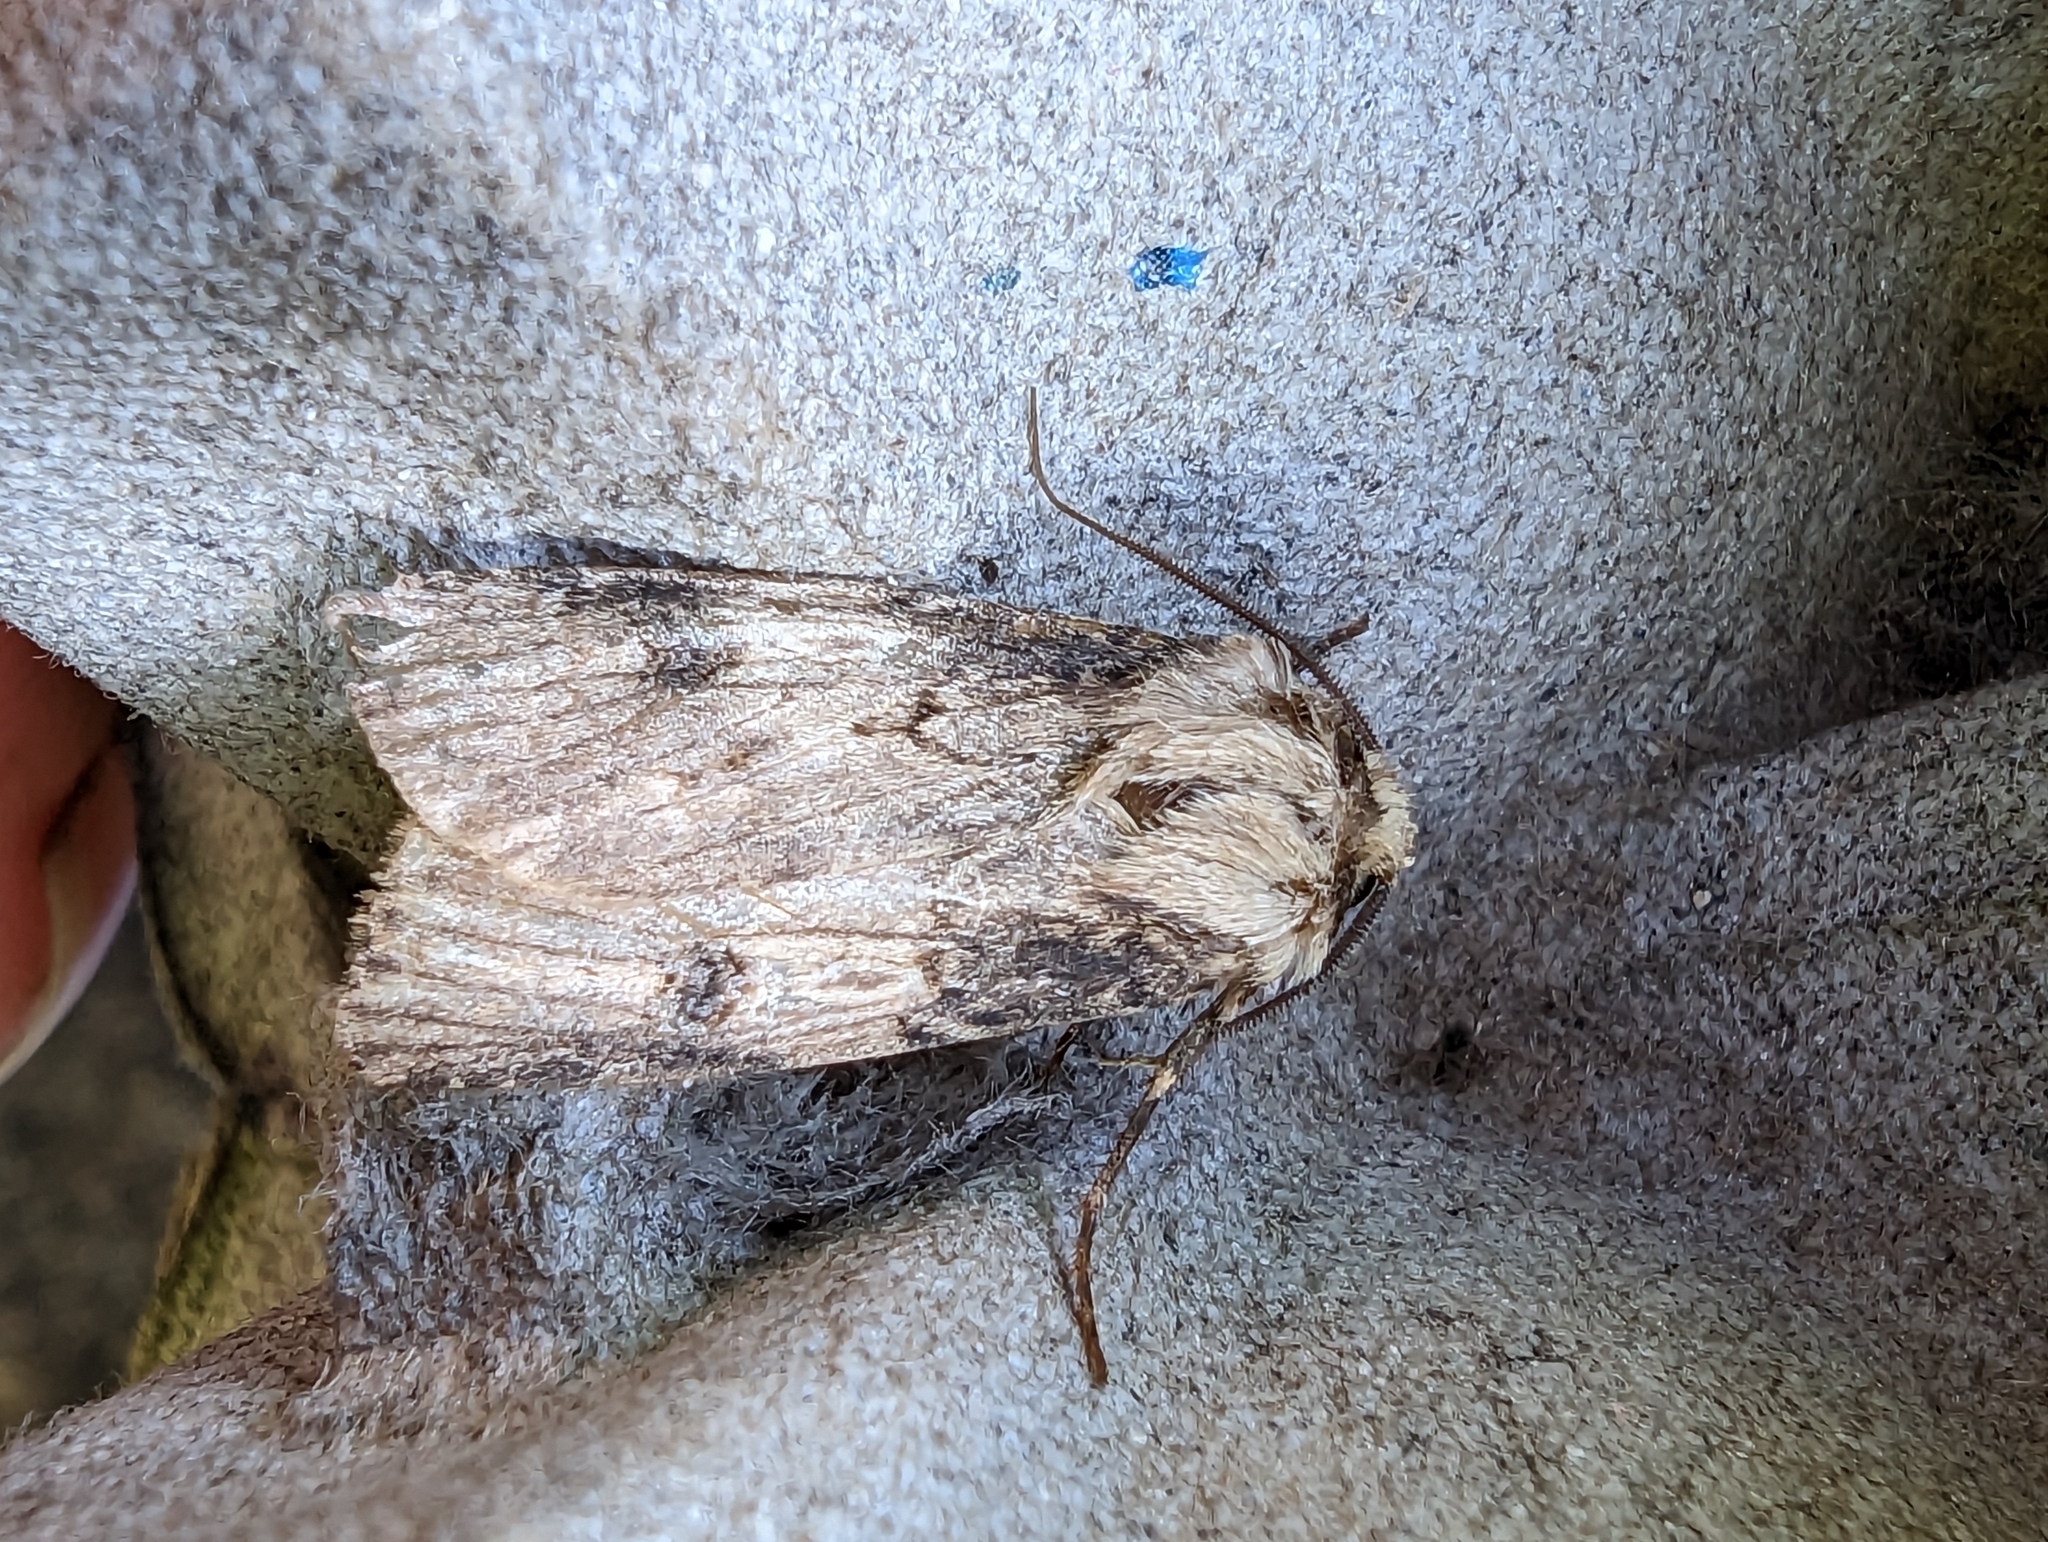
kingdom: Animalia
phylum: Arthropoda
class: Insecta
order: Lepidoptera
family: Noctuidae
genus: Agrotis
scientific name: Agrotis puta
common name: Shuttle-shaped dart
